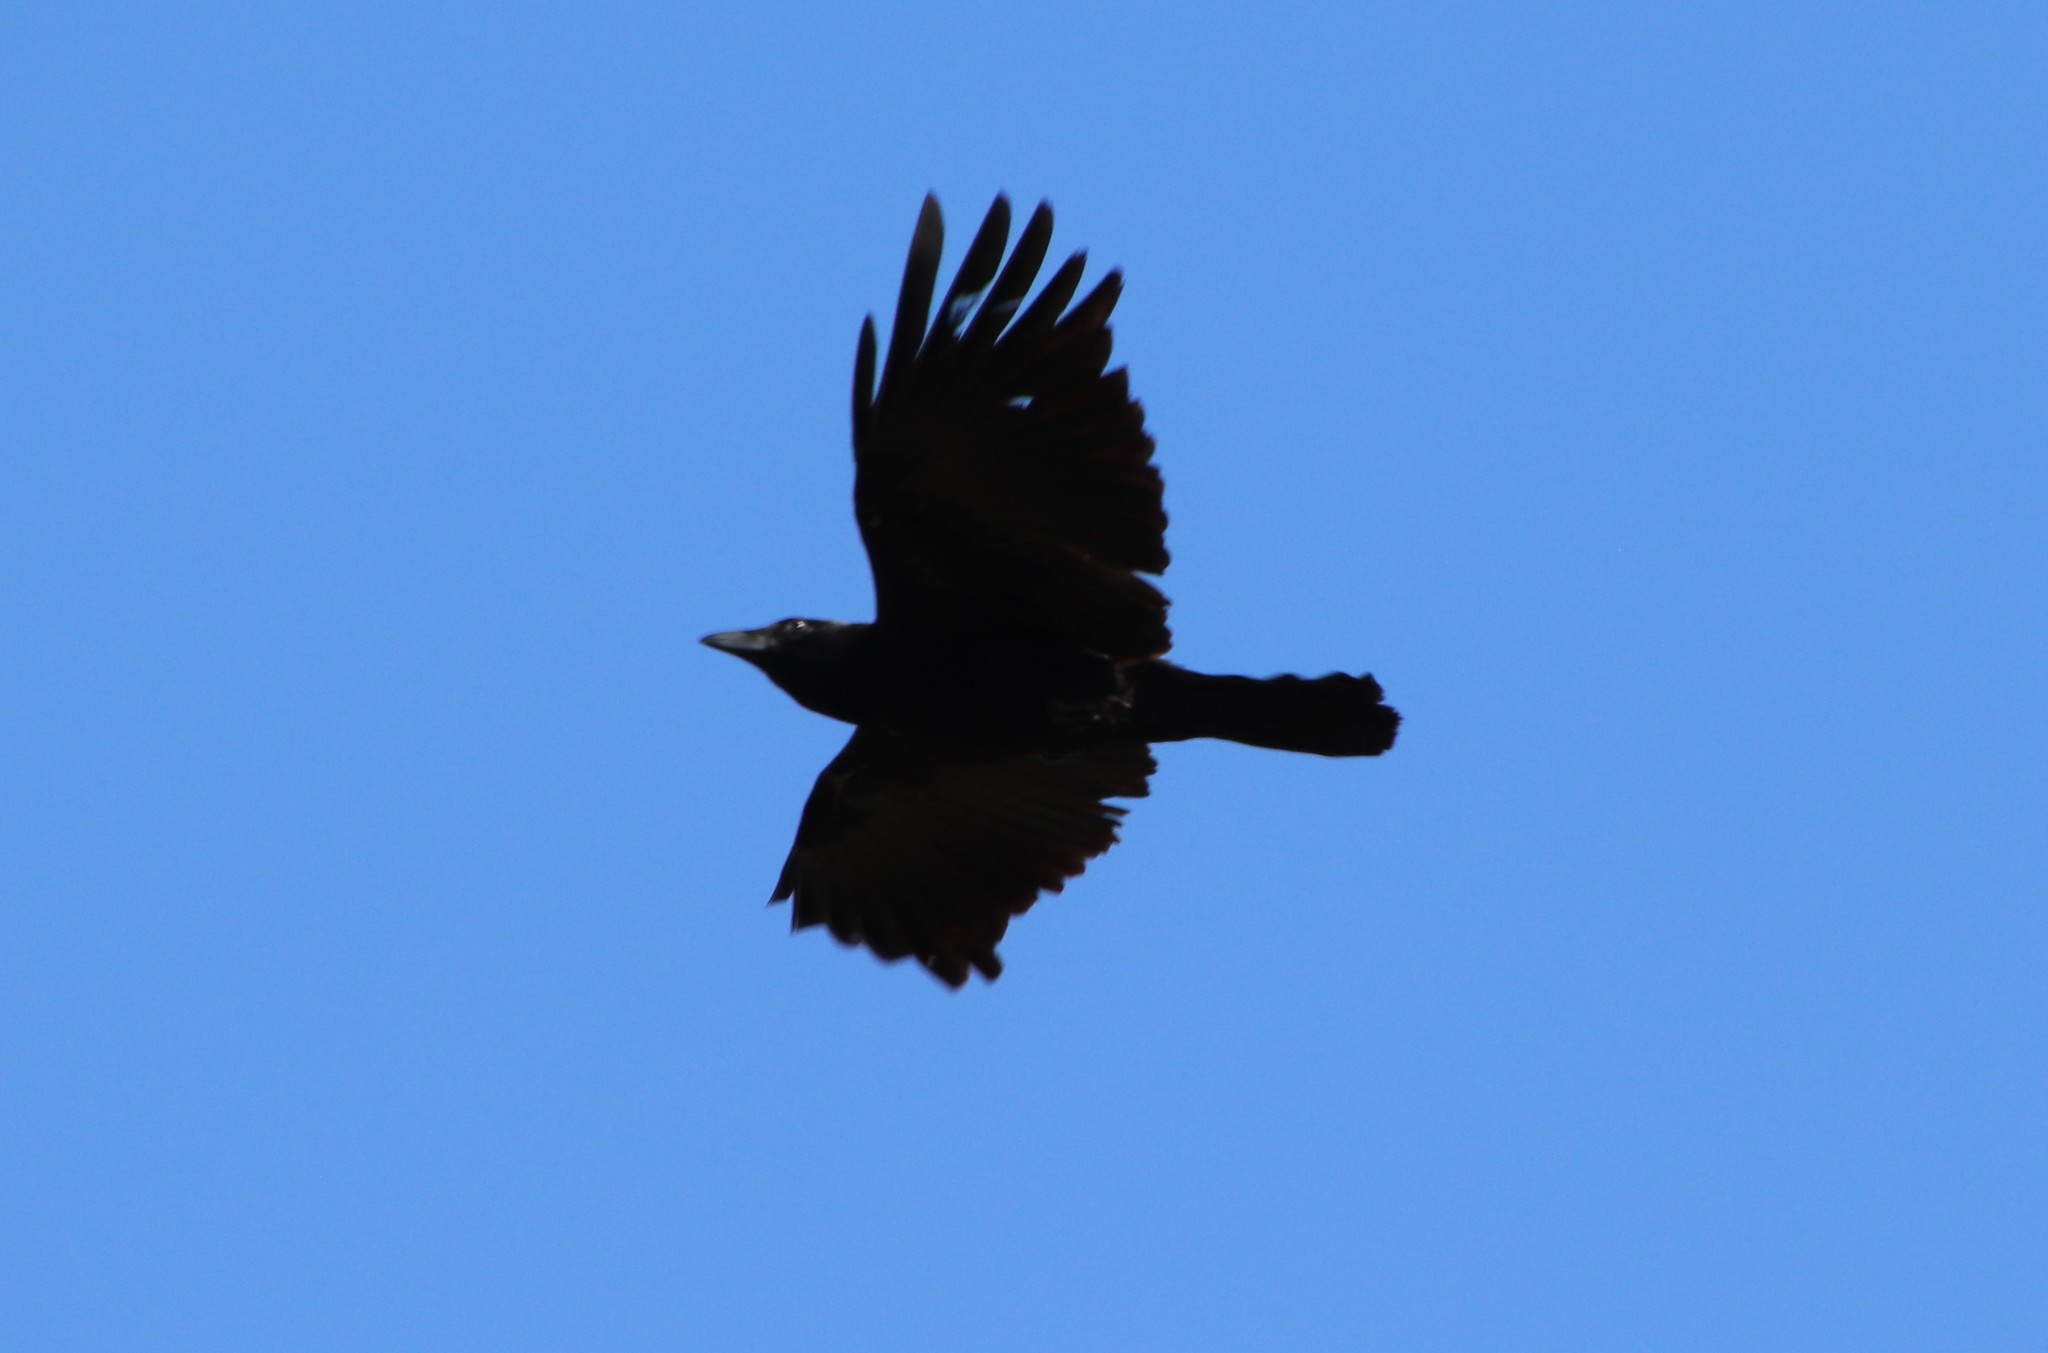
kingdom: Animalia
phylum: Chordata
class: Aves
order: Passeriformes
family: Corvidae
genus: Corvus
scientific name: Corvus corax
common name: Common raven
